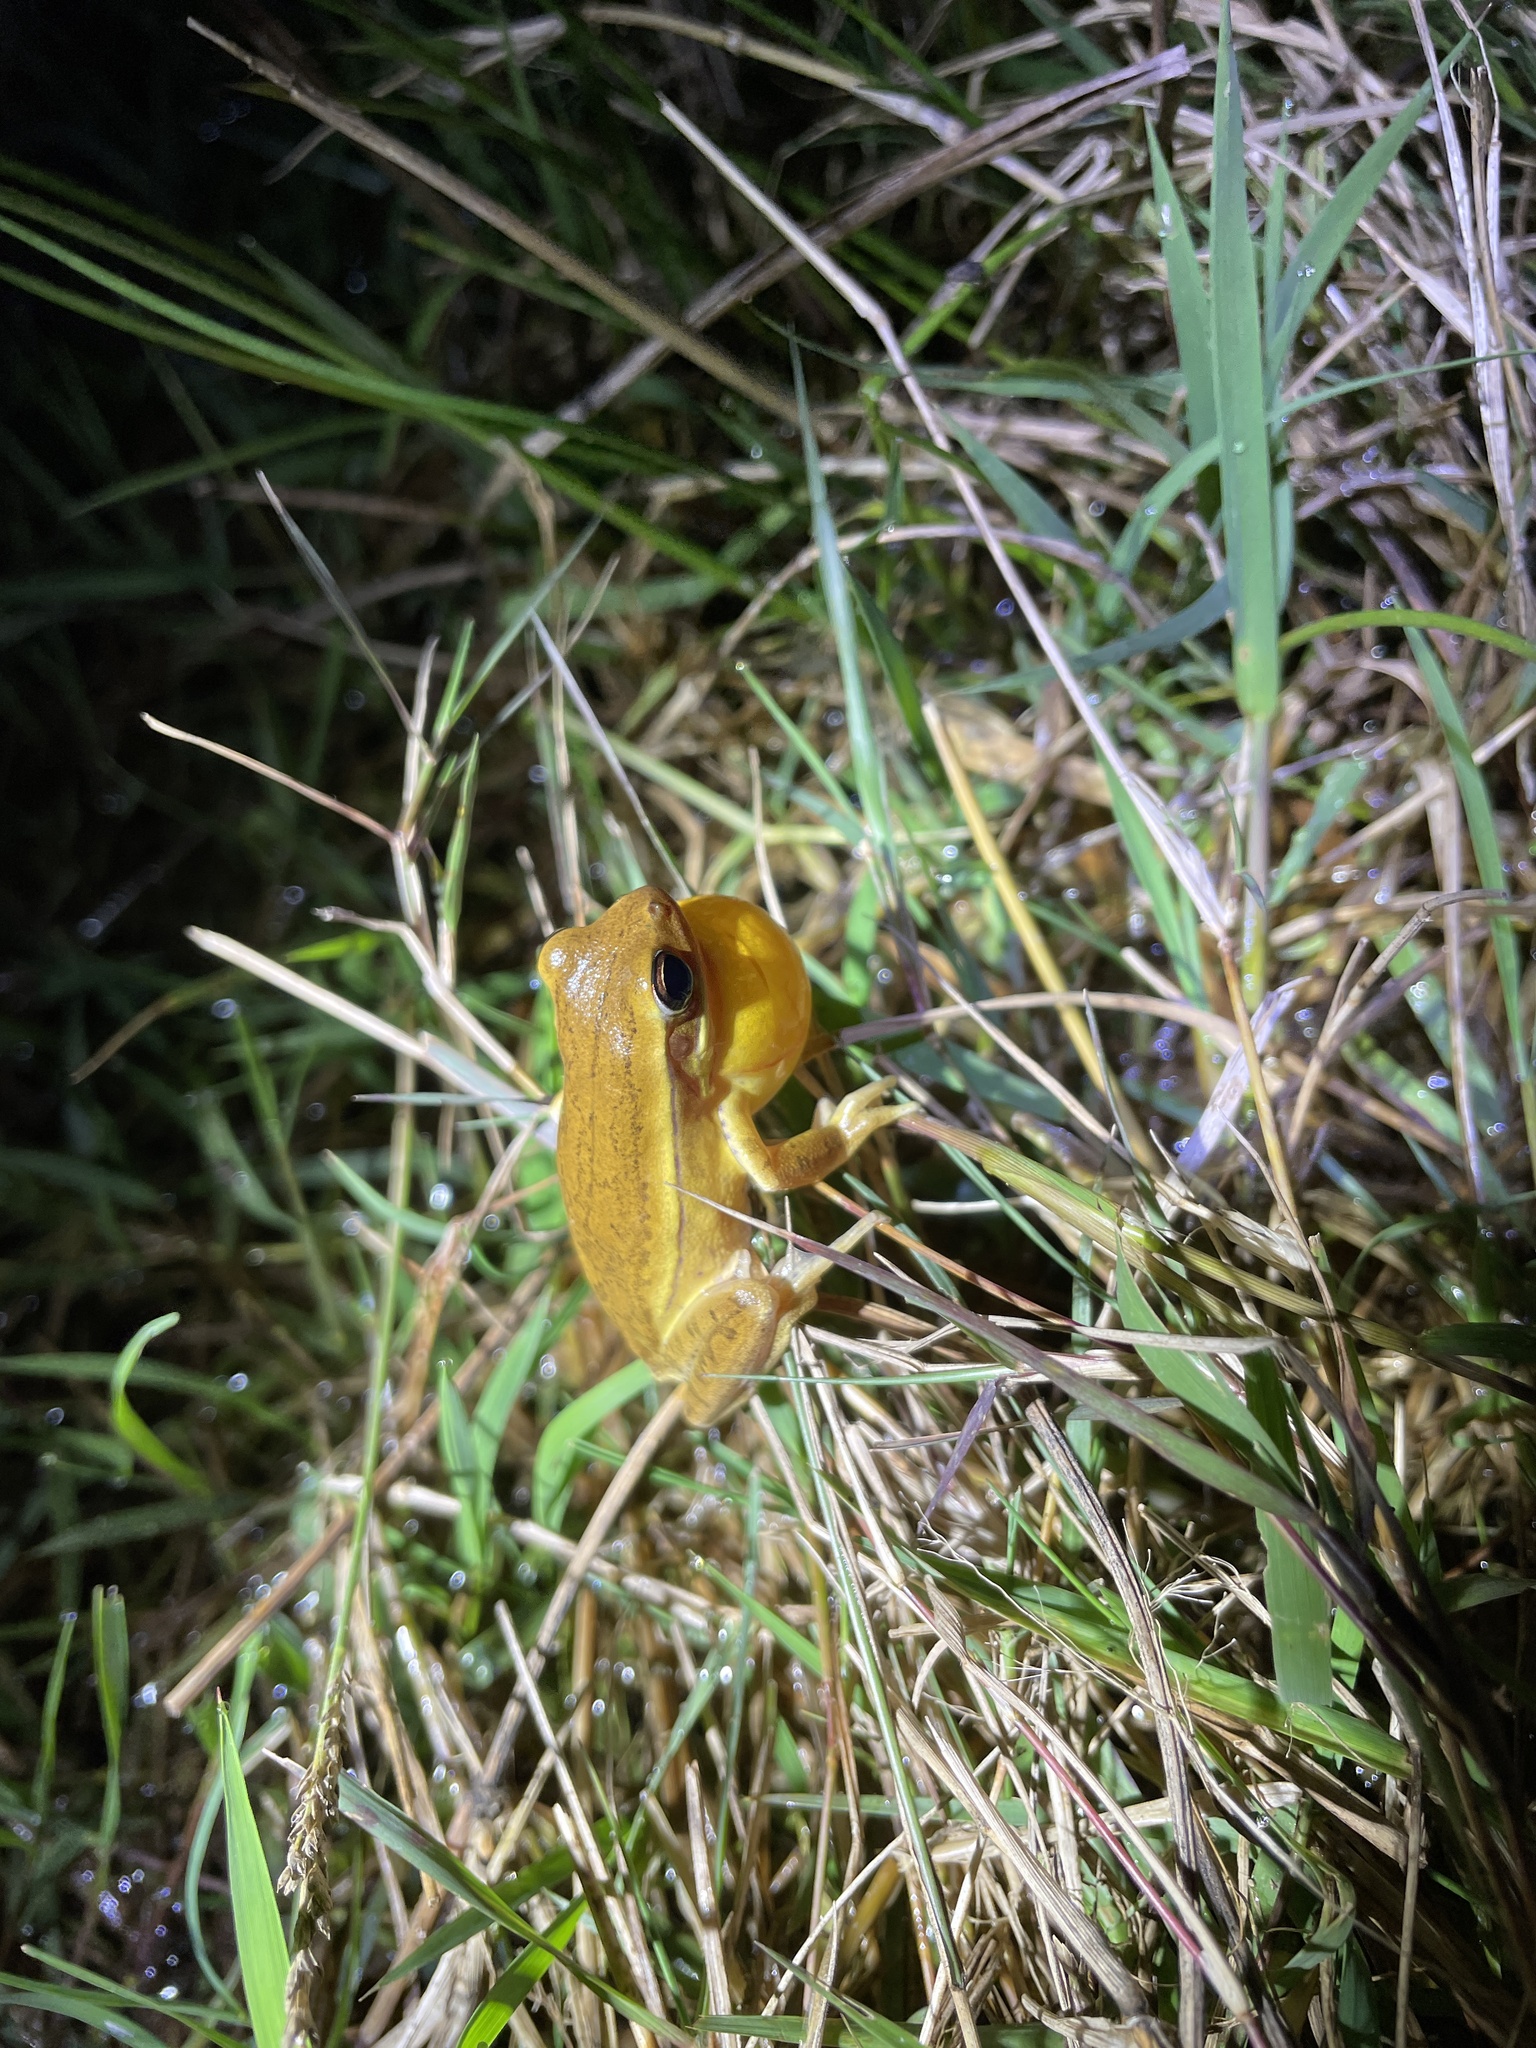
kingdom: Animalia
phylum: Chordata
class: Amphibia
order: Anura
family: Hylidae
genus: Boana
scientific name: Boana pulchella
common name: Montevideo treefrog
